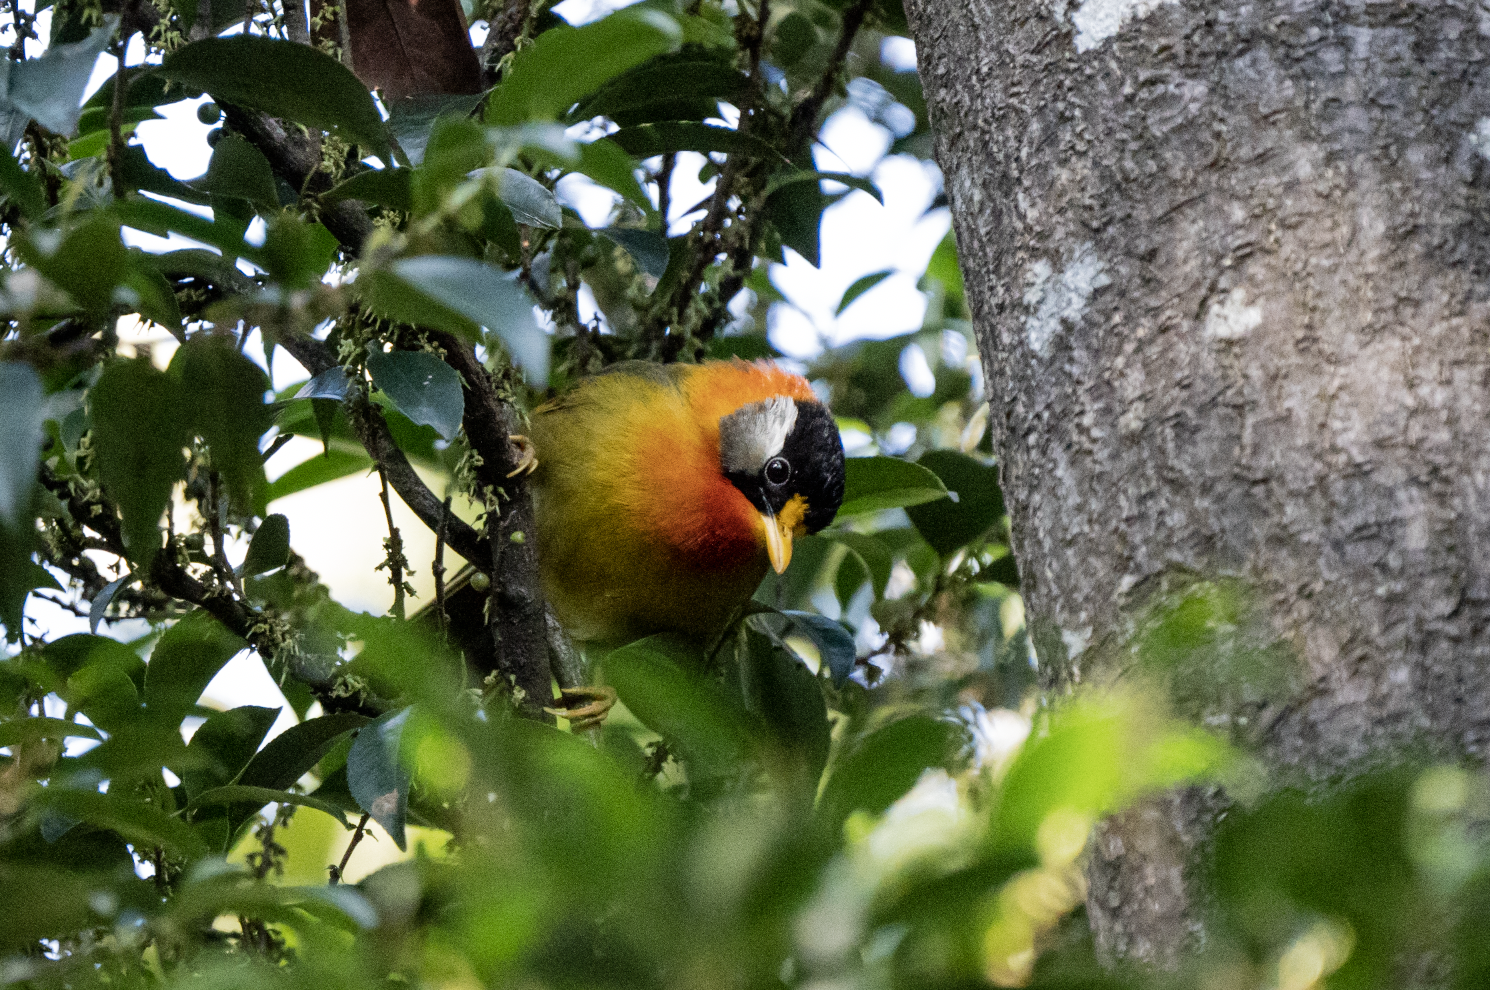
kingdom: Animalia
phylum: Chordata
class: Aves
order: Passeriformes
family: Leiothrichidae
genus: Leiothrix
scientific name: Leiothrix argentauris
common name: Silver-eared mesia
